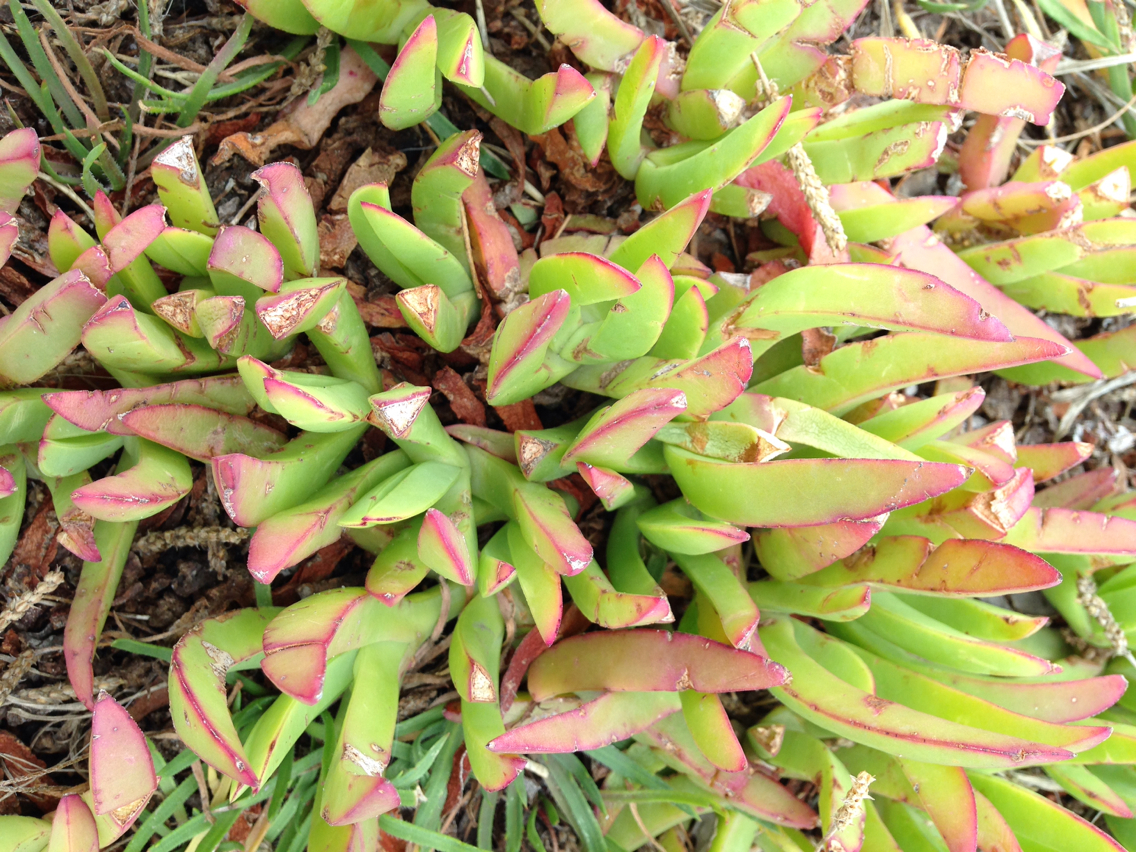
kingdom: Plantae
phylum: Tracheophyta
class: Magnoliopsida
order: Caryophyllales
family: Aizoaceae
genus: Carpobrotus
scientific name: Carpobrotus edulis
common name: Hottentot-fig
